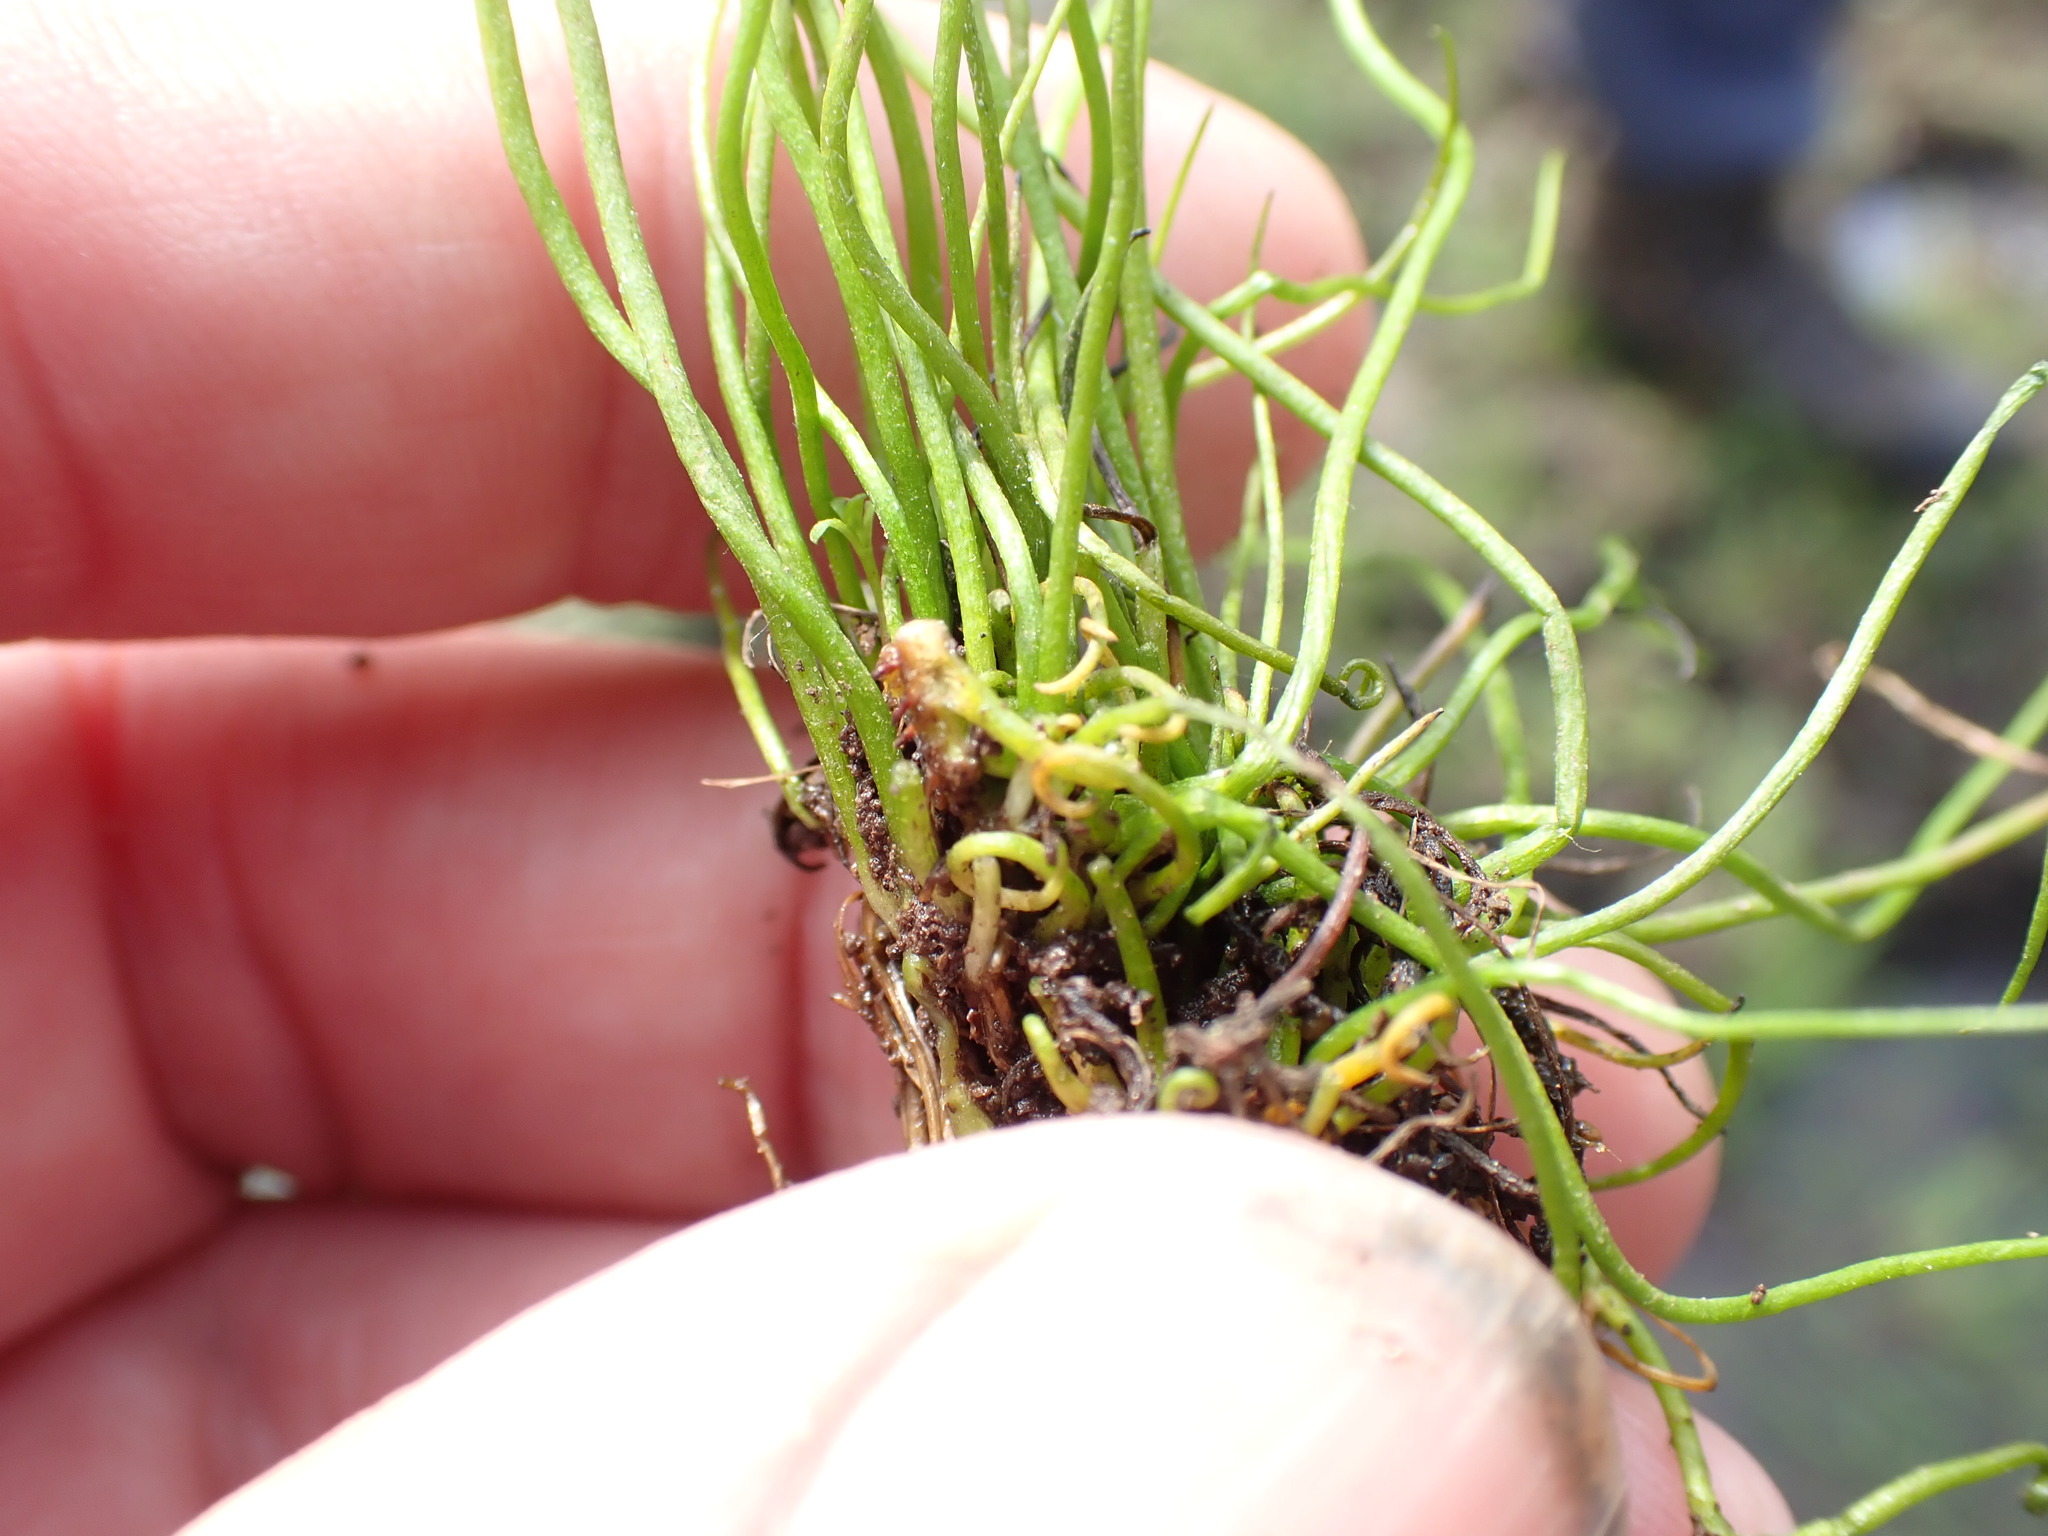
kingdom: Plantae
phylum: Tracheophyta
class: Polypodiopsida
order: Salviniales
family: Marsileaceae
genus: Pilularia
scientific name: Pilularia globulifera
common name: Pillwort
